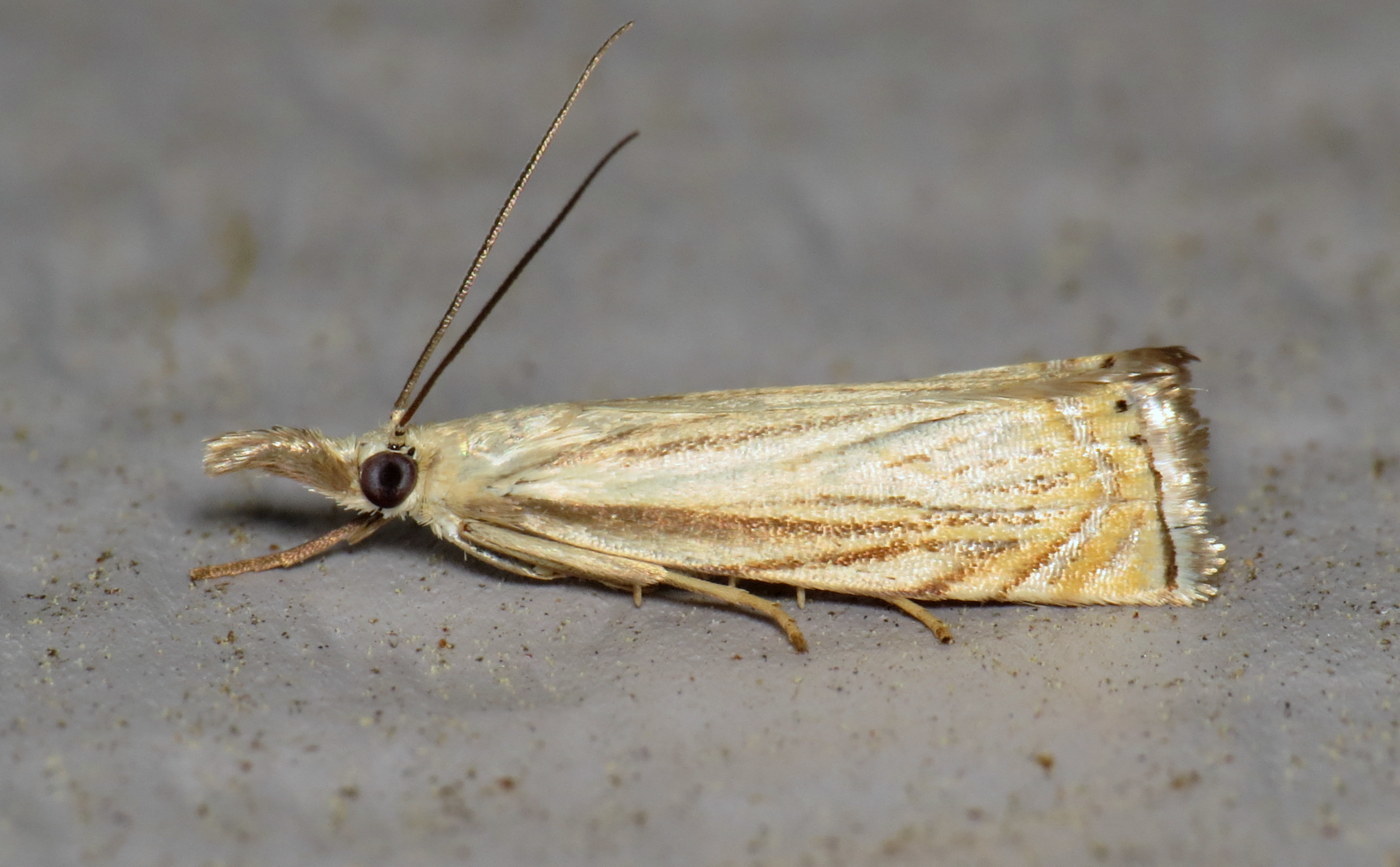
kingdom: Animalia
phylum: Arthropoda
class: Insecta
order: Lepidoptera
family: Crambidae
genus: Chrysoteuchia
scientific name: Chrysoteuchia topiarius
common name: Topiary grass-veneer
